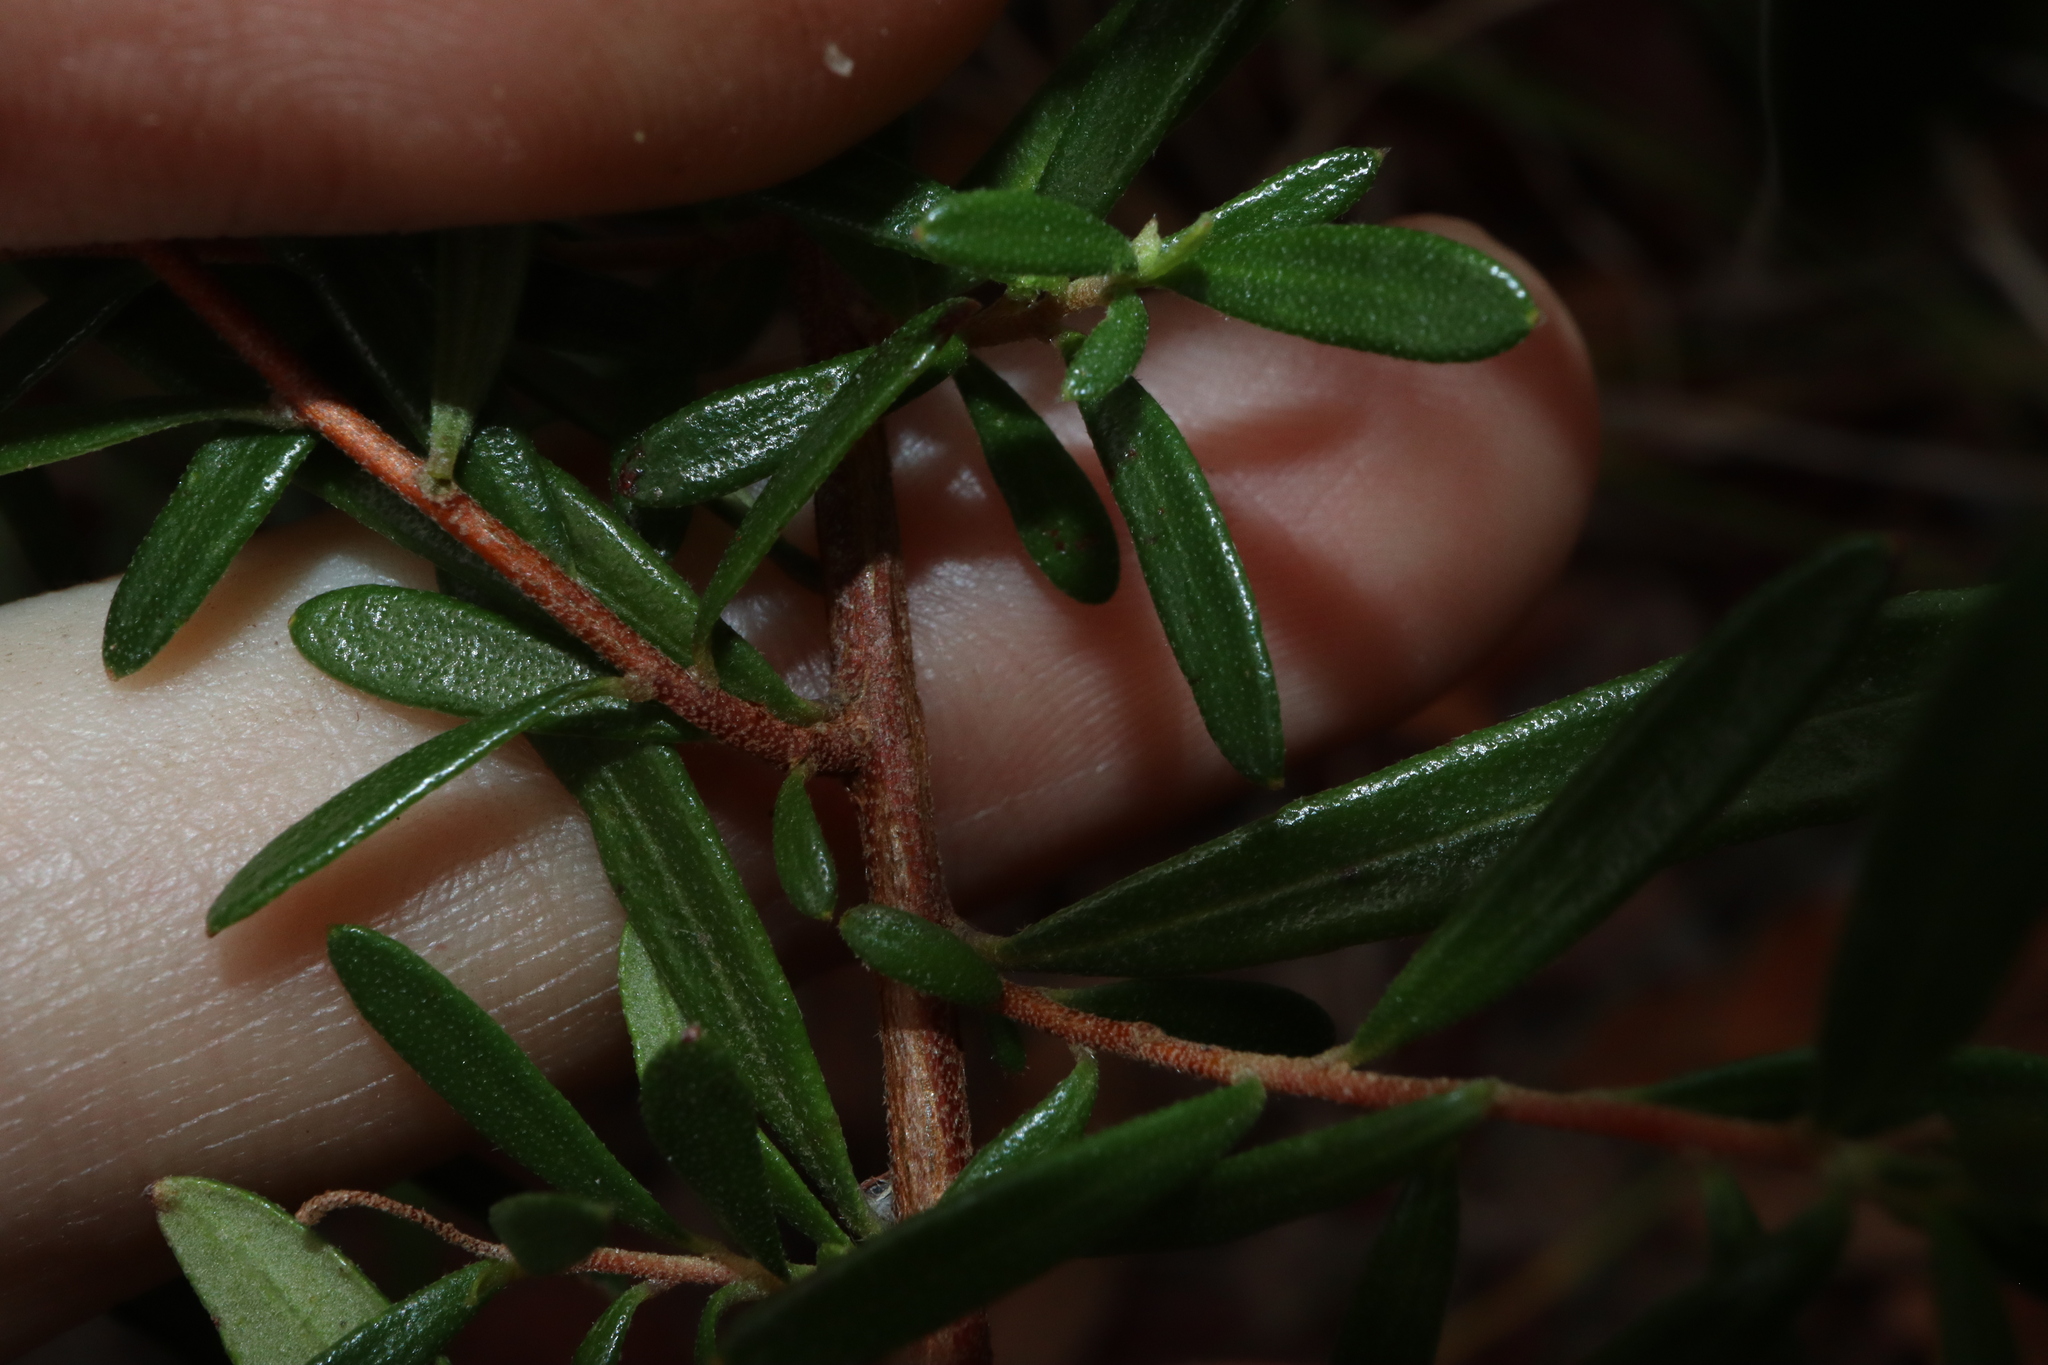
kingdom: Plantae
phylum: Tracheophyta
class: Magnoliopsida
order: Dilleniales
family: Dilleniaceae
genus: Hibbertia
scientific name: Hibbertia stelligera
